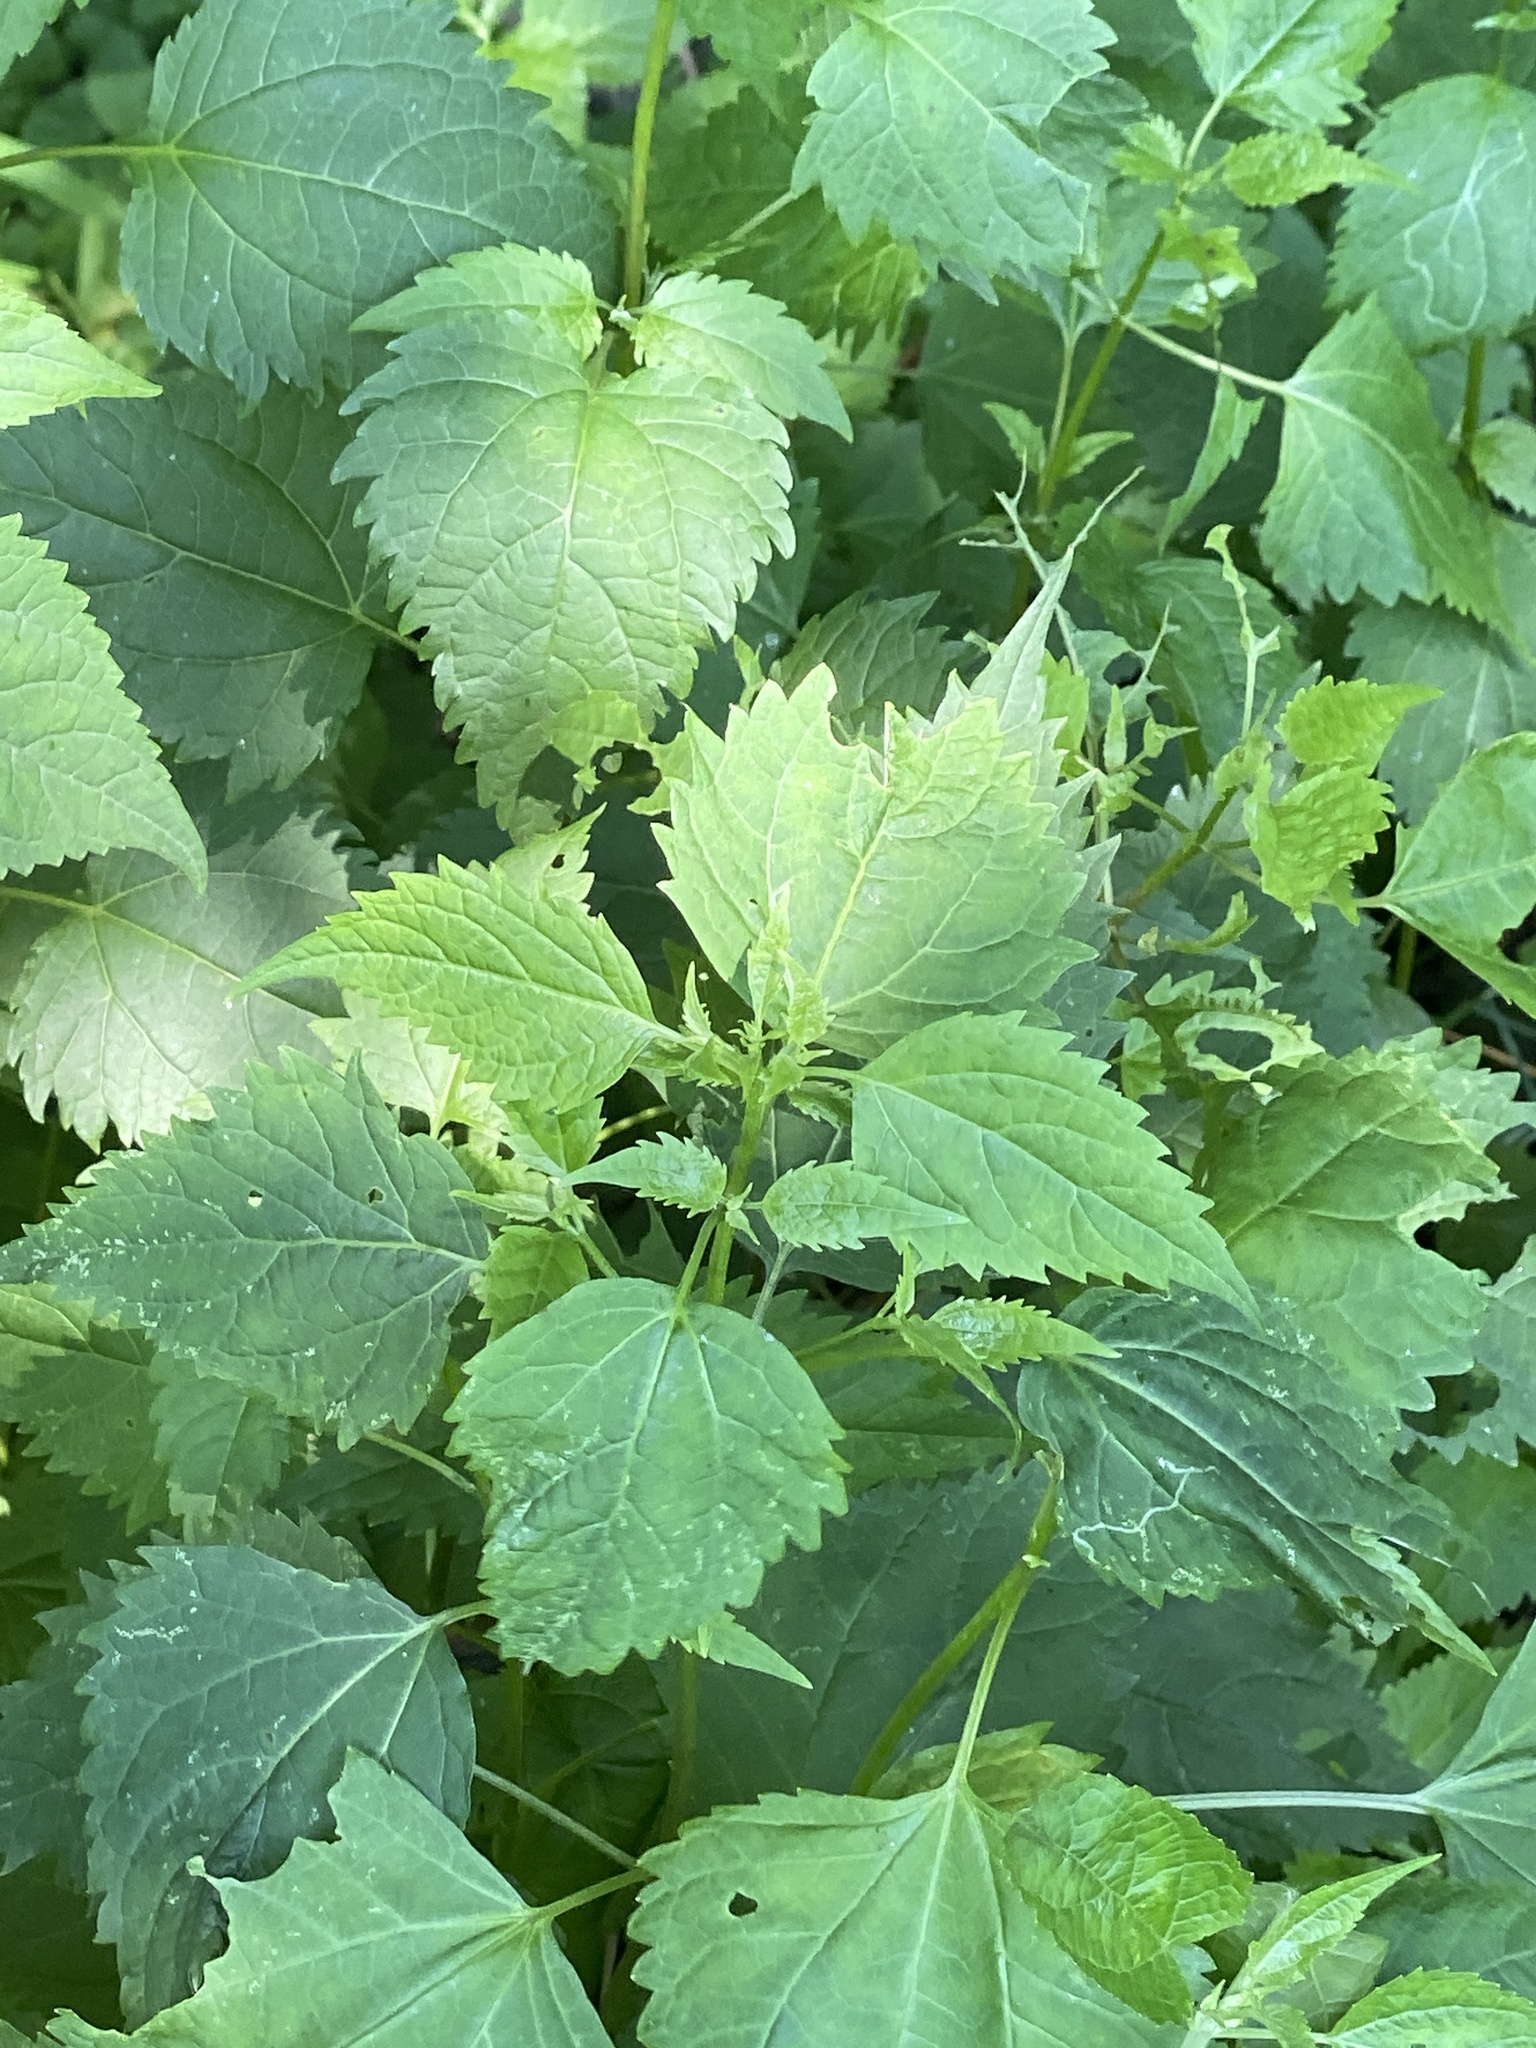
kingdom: Plantae
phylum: Tracheophyta
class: Magnoliopsida
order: Asterales
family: Asteraceae
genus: Ageratina
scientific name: Ageratina altissima
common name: White snakeroot
